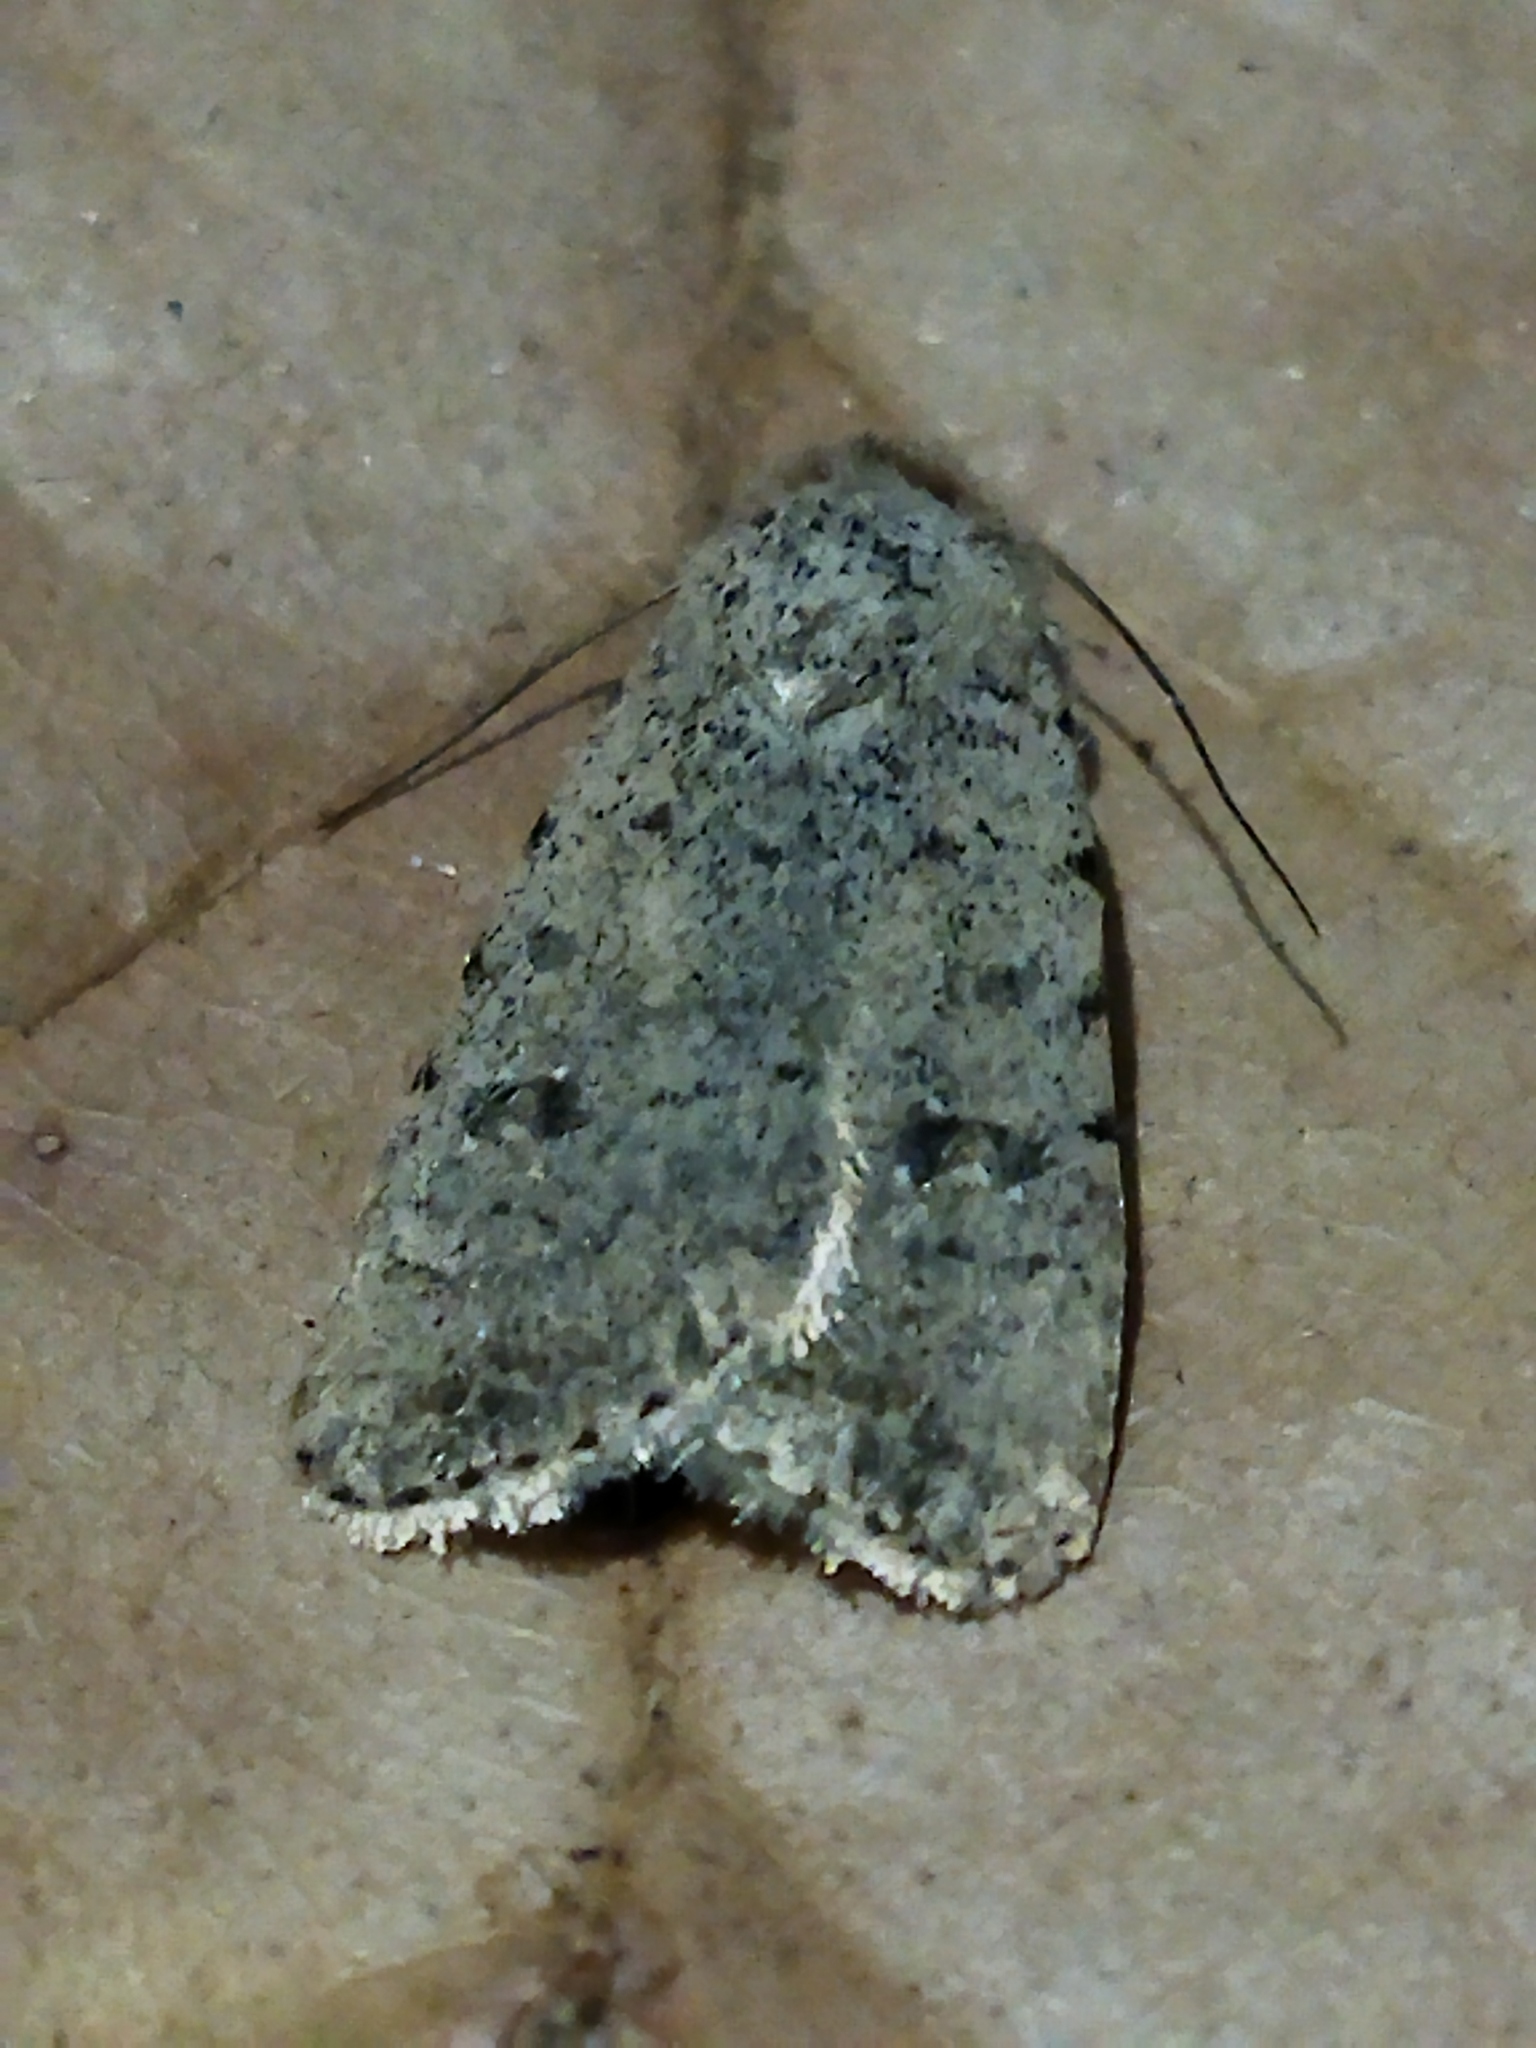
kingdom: Animalia
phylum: Arthropoda
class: Insecta
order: Lepidoptera
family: Noctuidae
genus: Caradrina
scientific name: Caradrina clavipalpis
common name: Pale mottled willow
